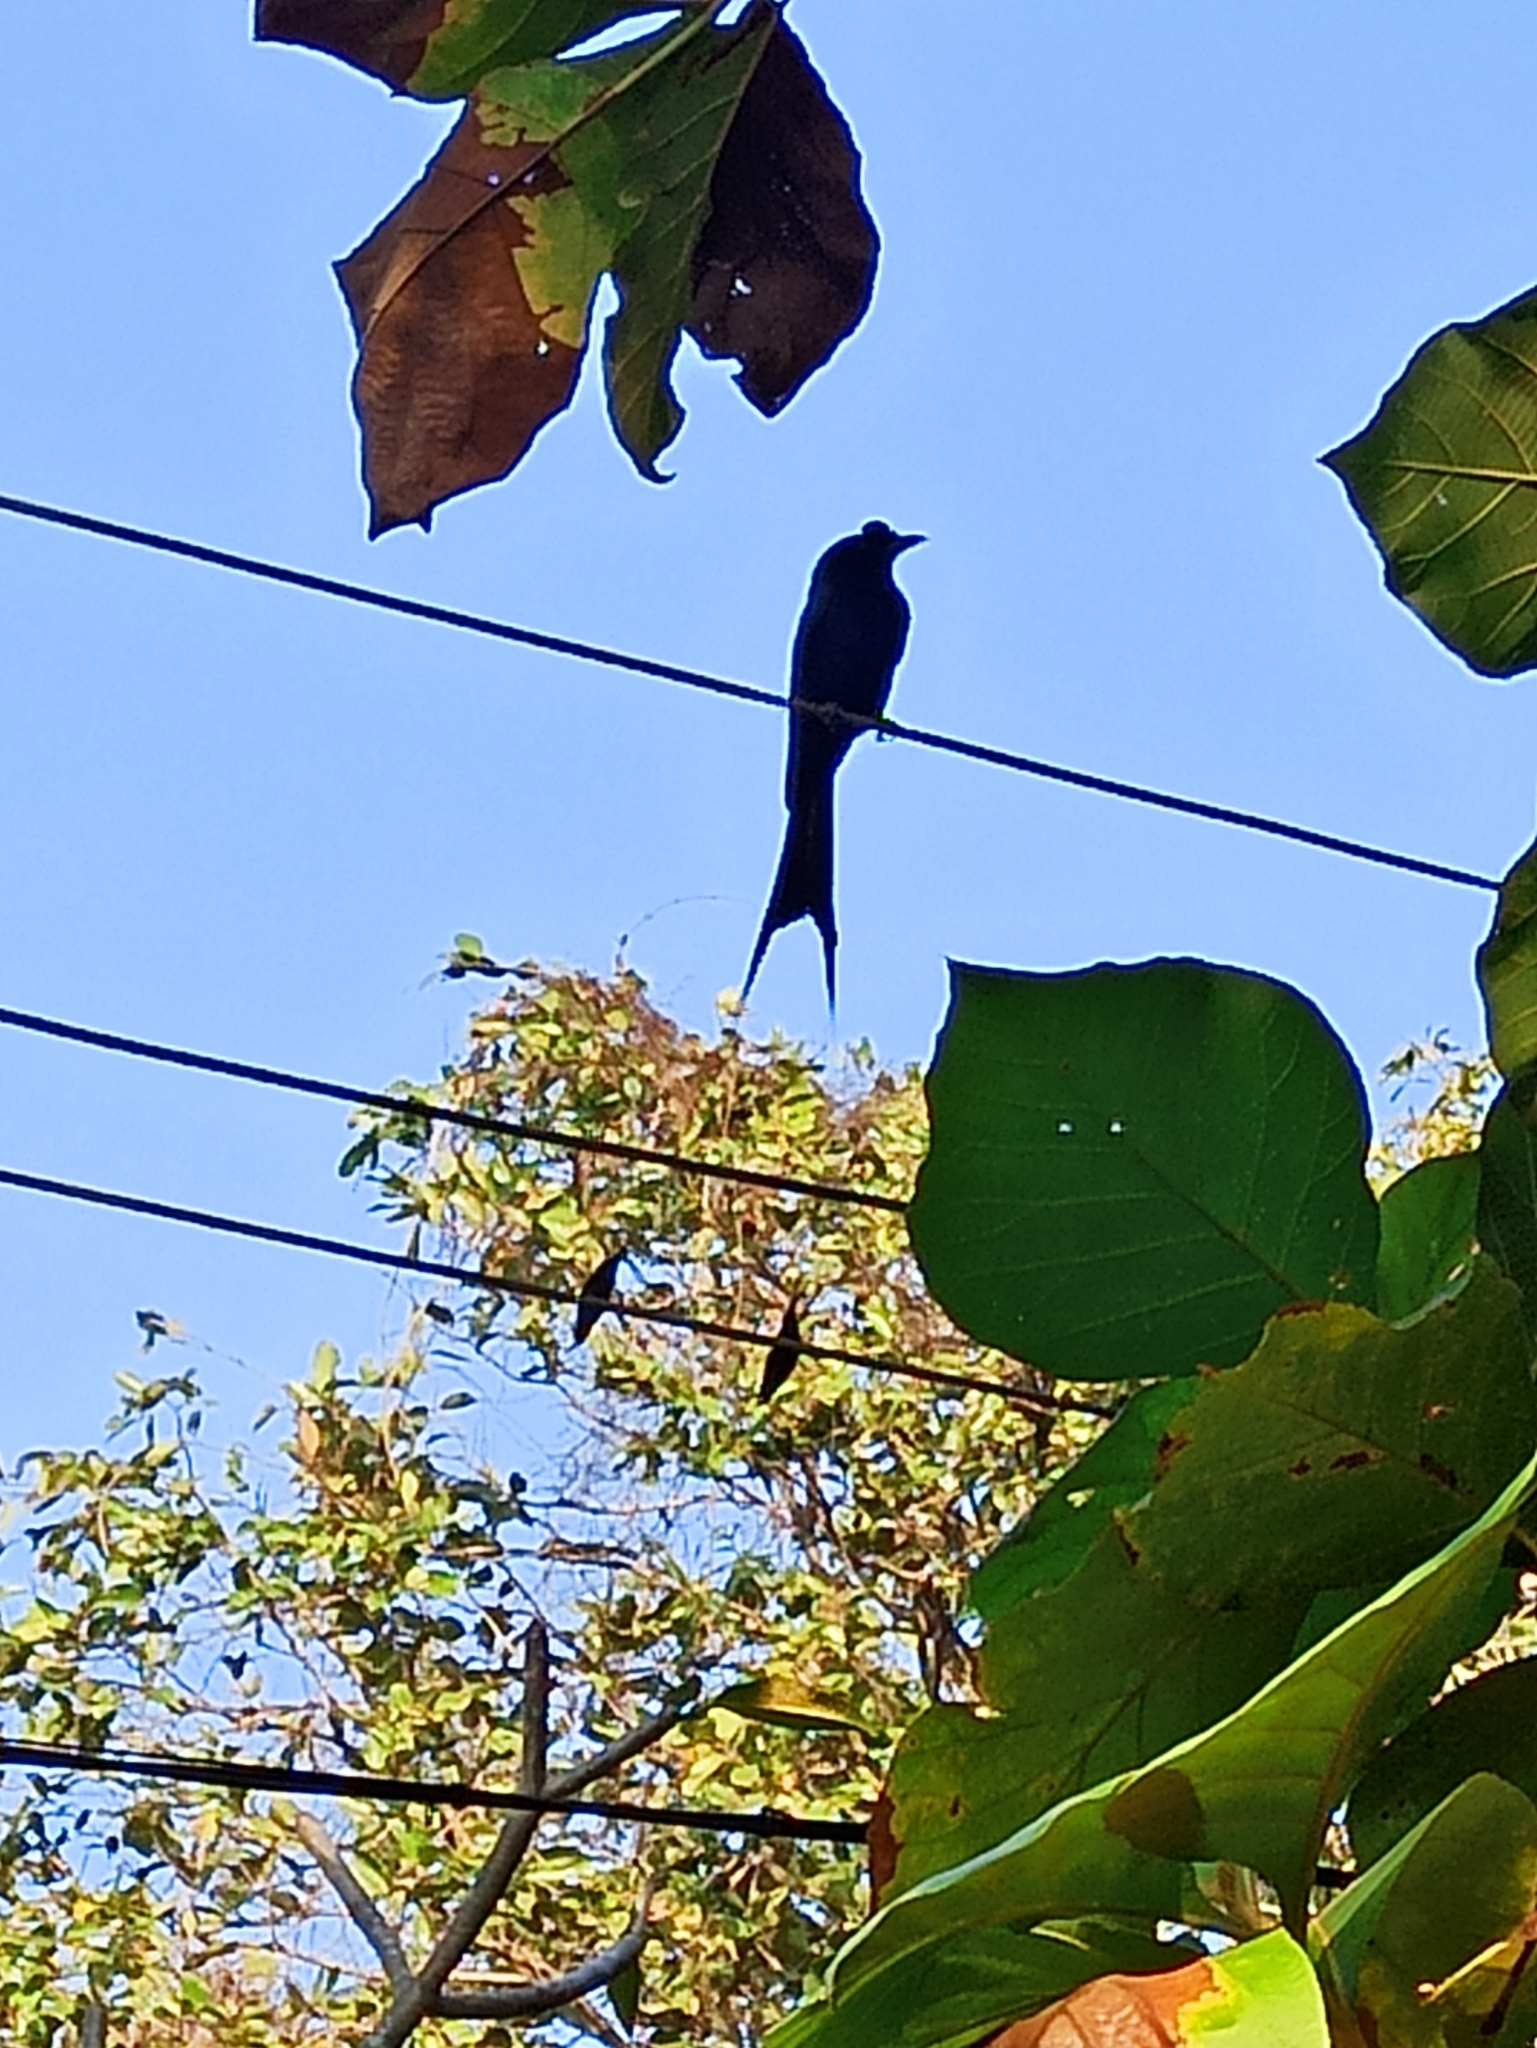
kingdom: Animalia
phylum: Chordata
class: Aves
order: Passeriformes
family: Dicruridae
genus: Dicrurus
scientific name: Dicrurus paradiseus
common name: Greater racket-tailed drongo
